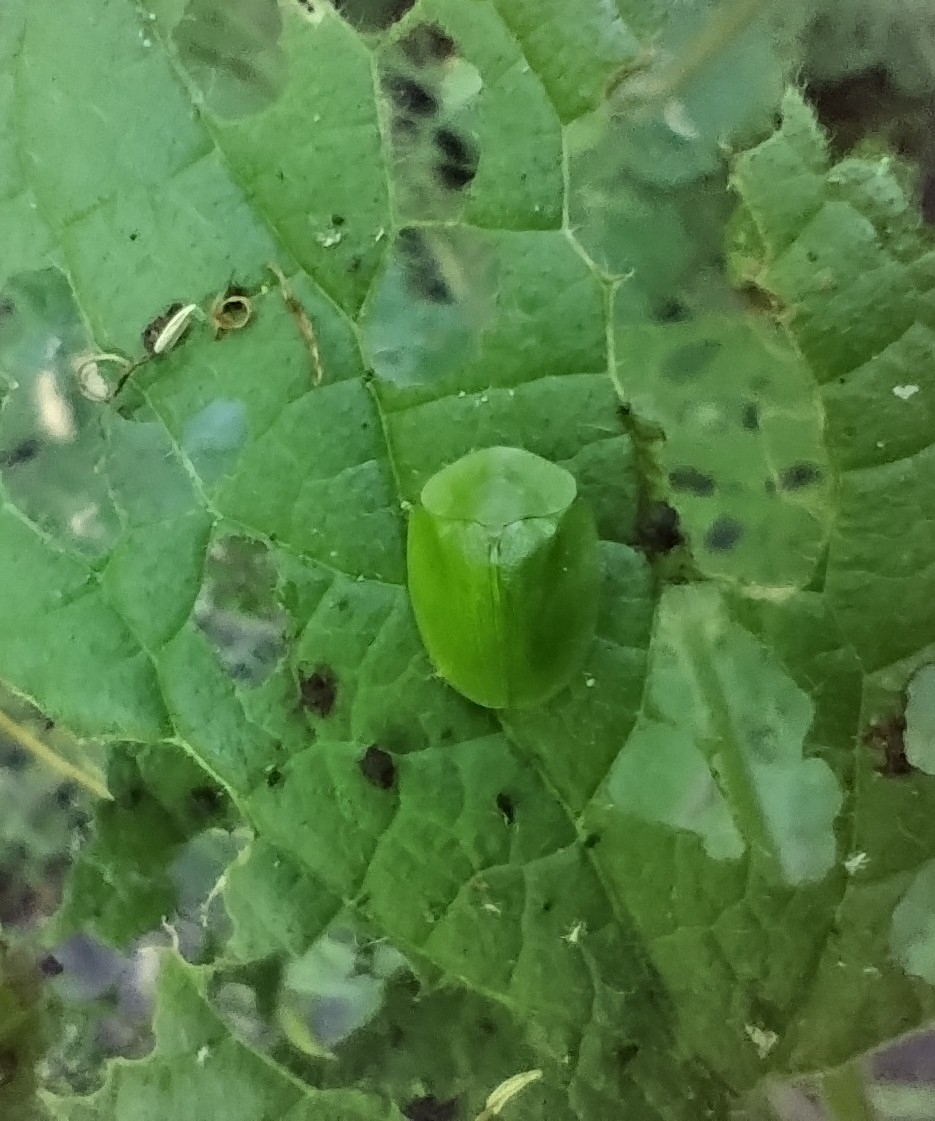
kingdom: Animalia
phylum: Arthropoda
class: Insecta
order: Coleoptera
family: Chrysomelidae
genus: Cassida
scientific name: Cassida viridis
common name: Green tortoise beetle
